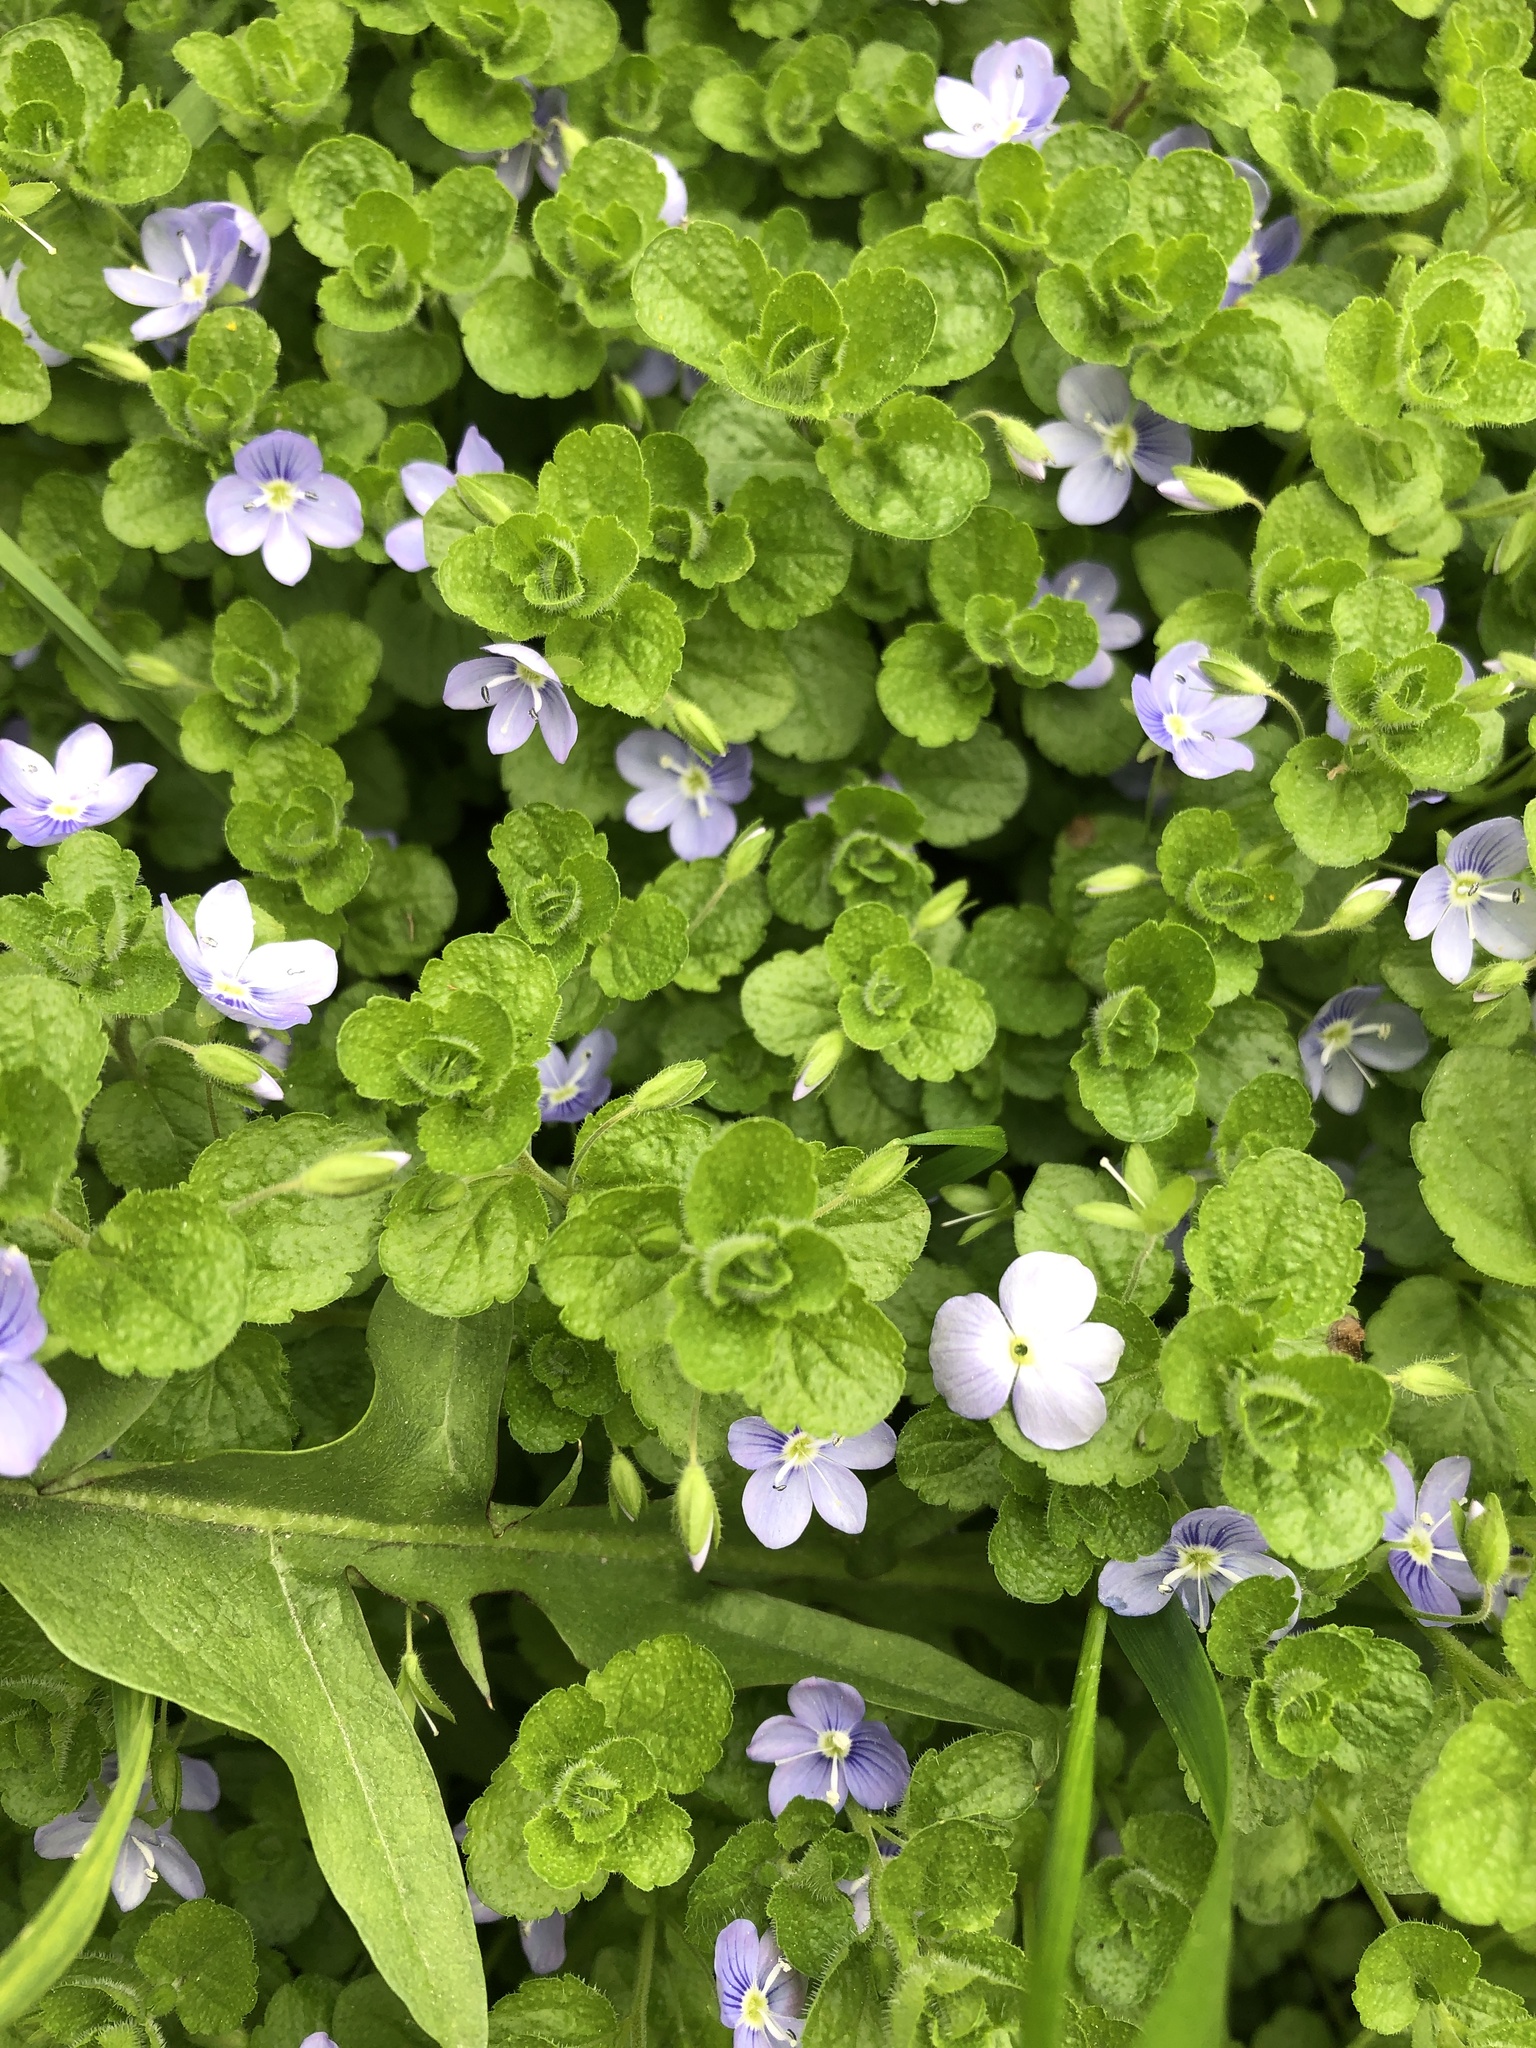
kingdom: Plantae
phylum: Tracheophyta
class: Magnoliopsida
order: Lamiales
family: Plantaginaceae
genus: Veronica
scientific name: Veronica filiformis
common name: Slender speedwell
